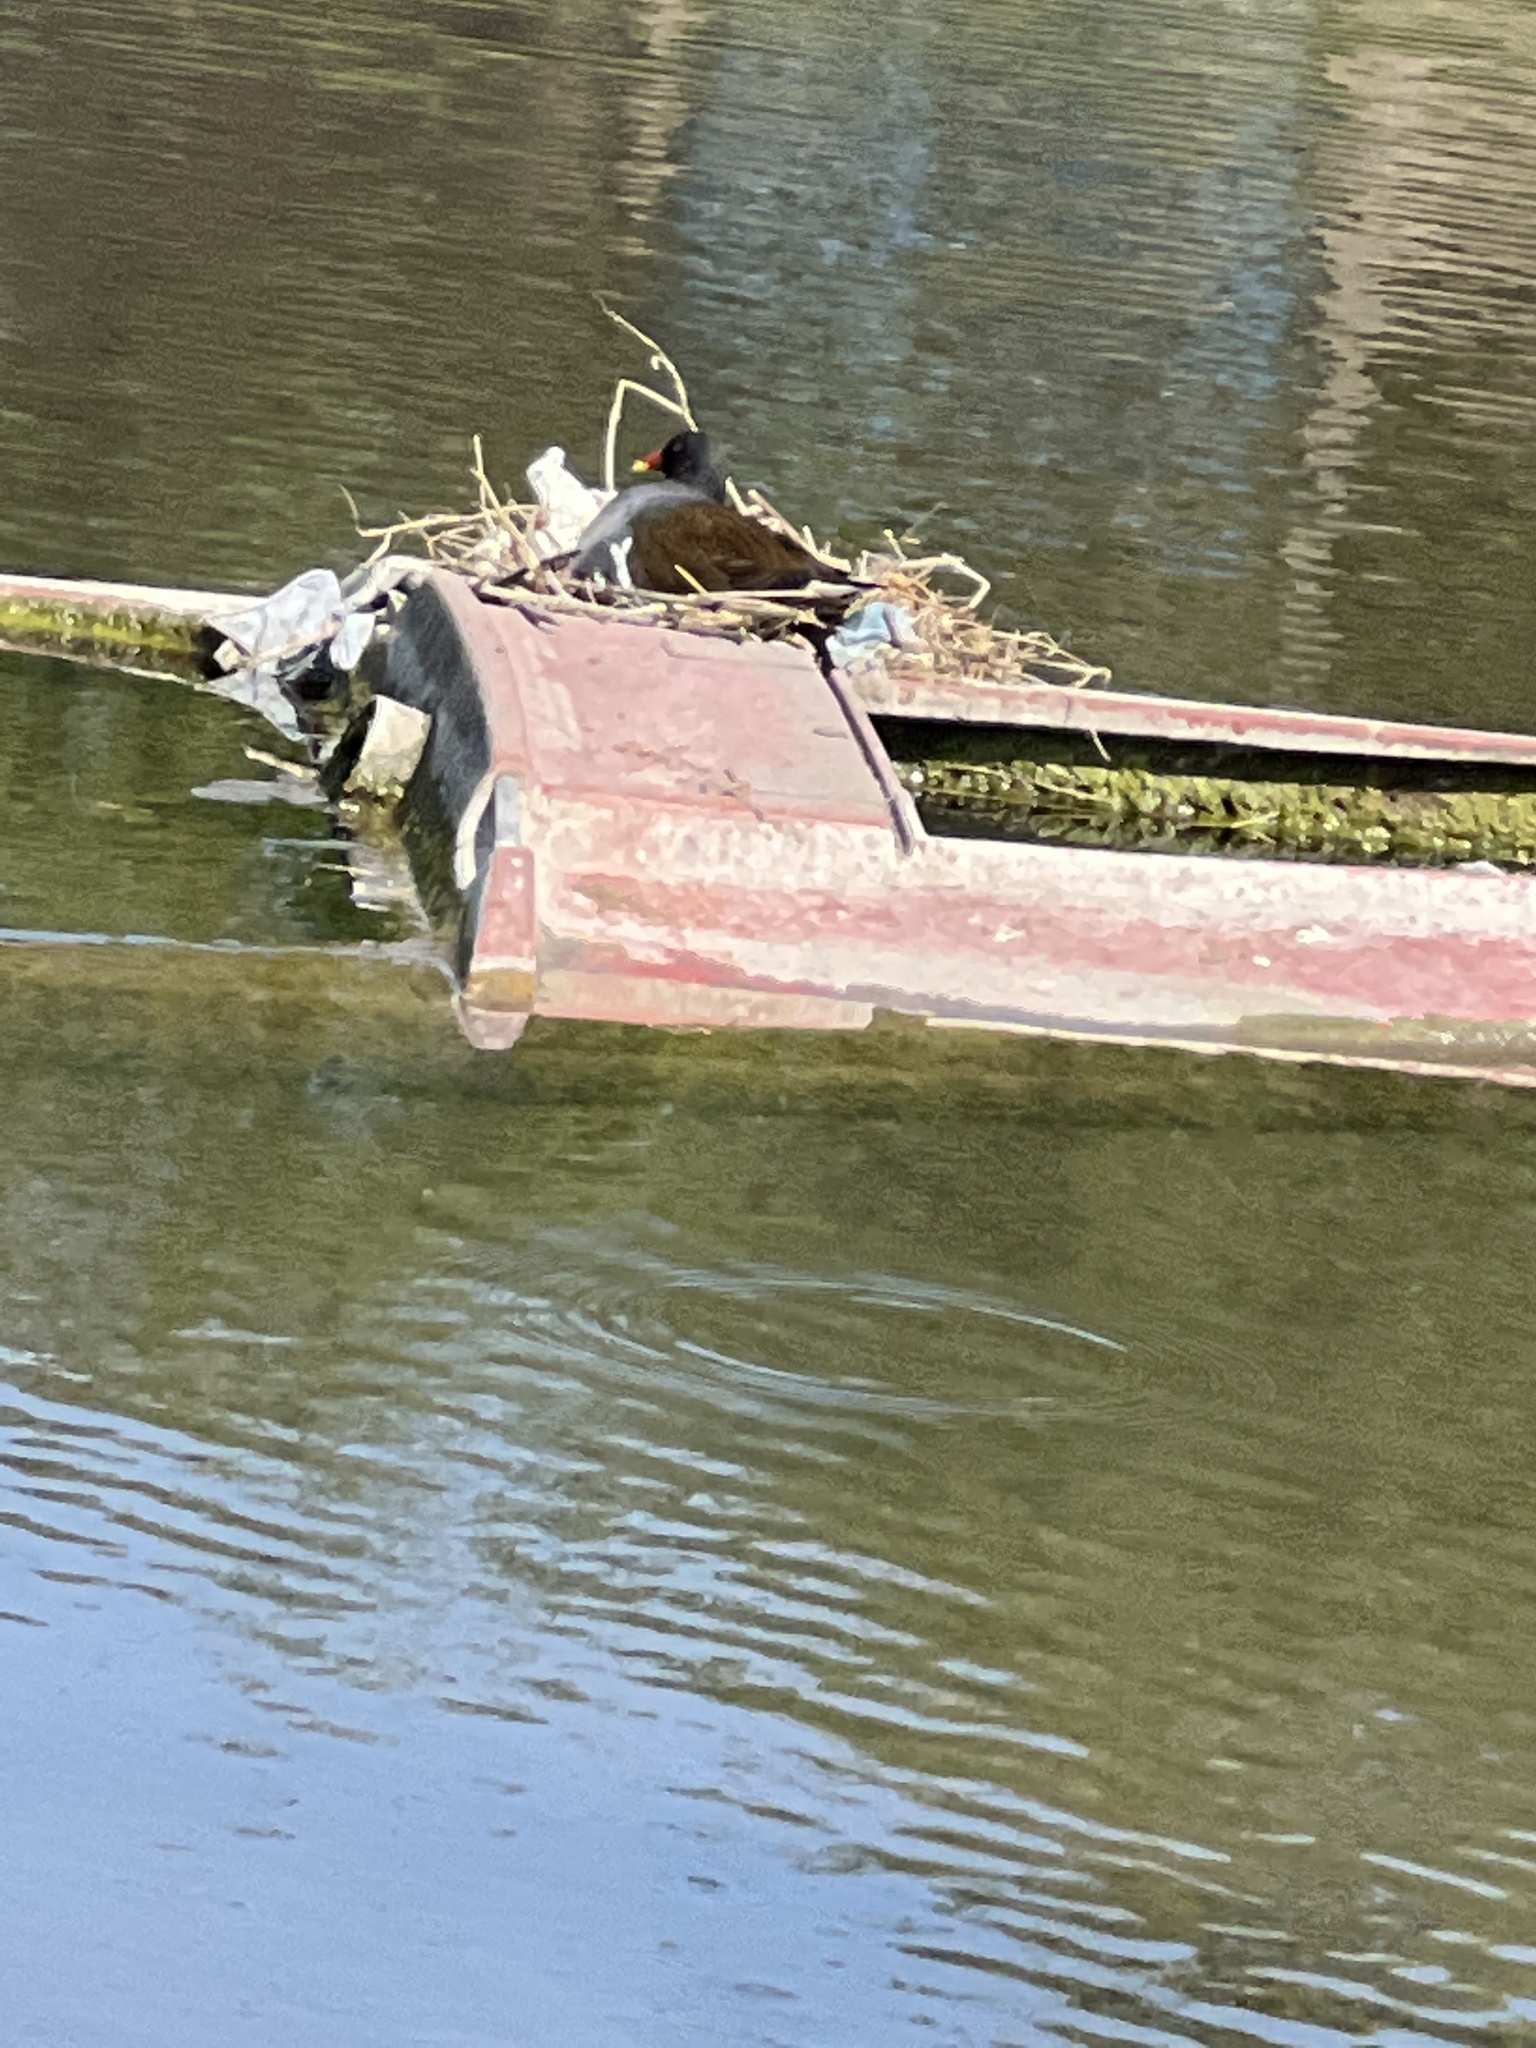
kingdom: Animalia
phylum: Chordata
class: Aves
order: Gruiformes
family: Rallidae
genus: Gallinula
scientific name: Gallinula chloropus
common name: Common moorhen
